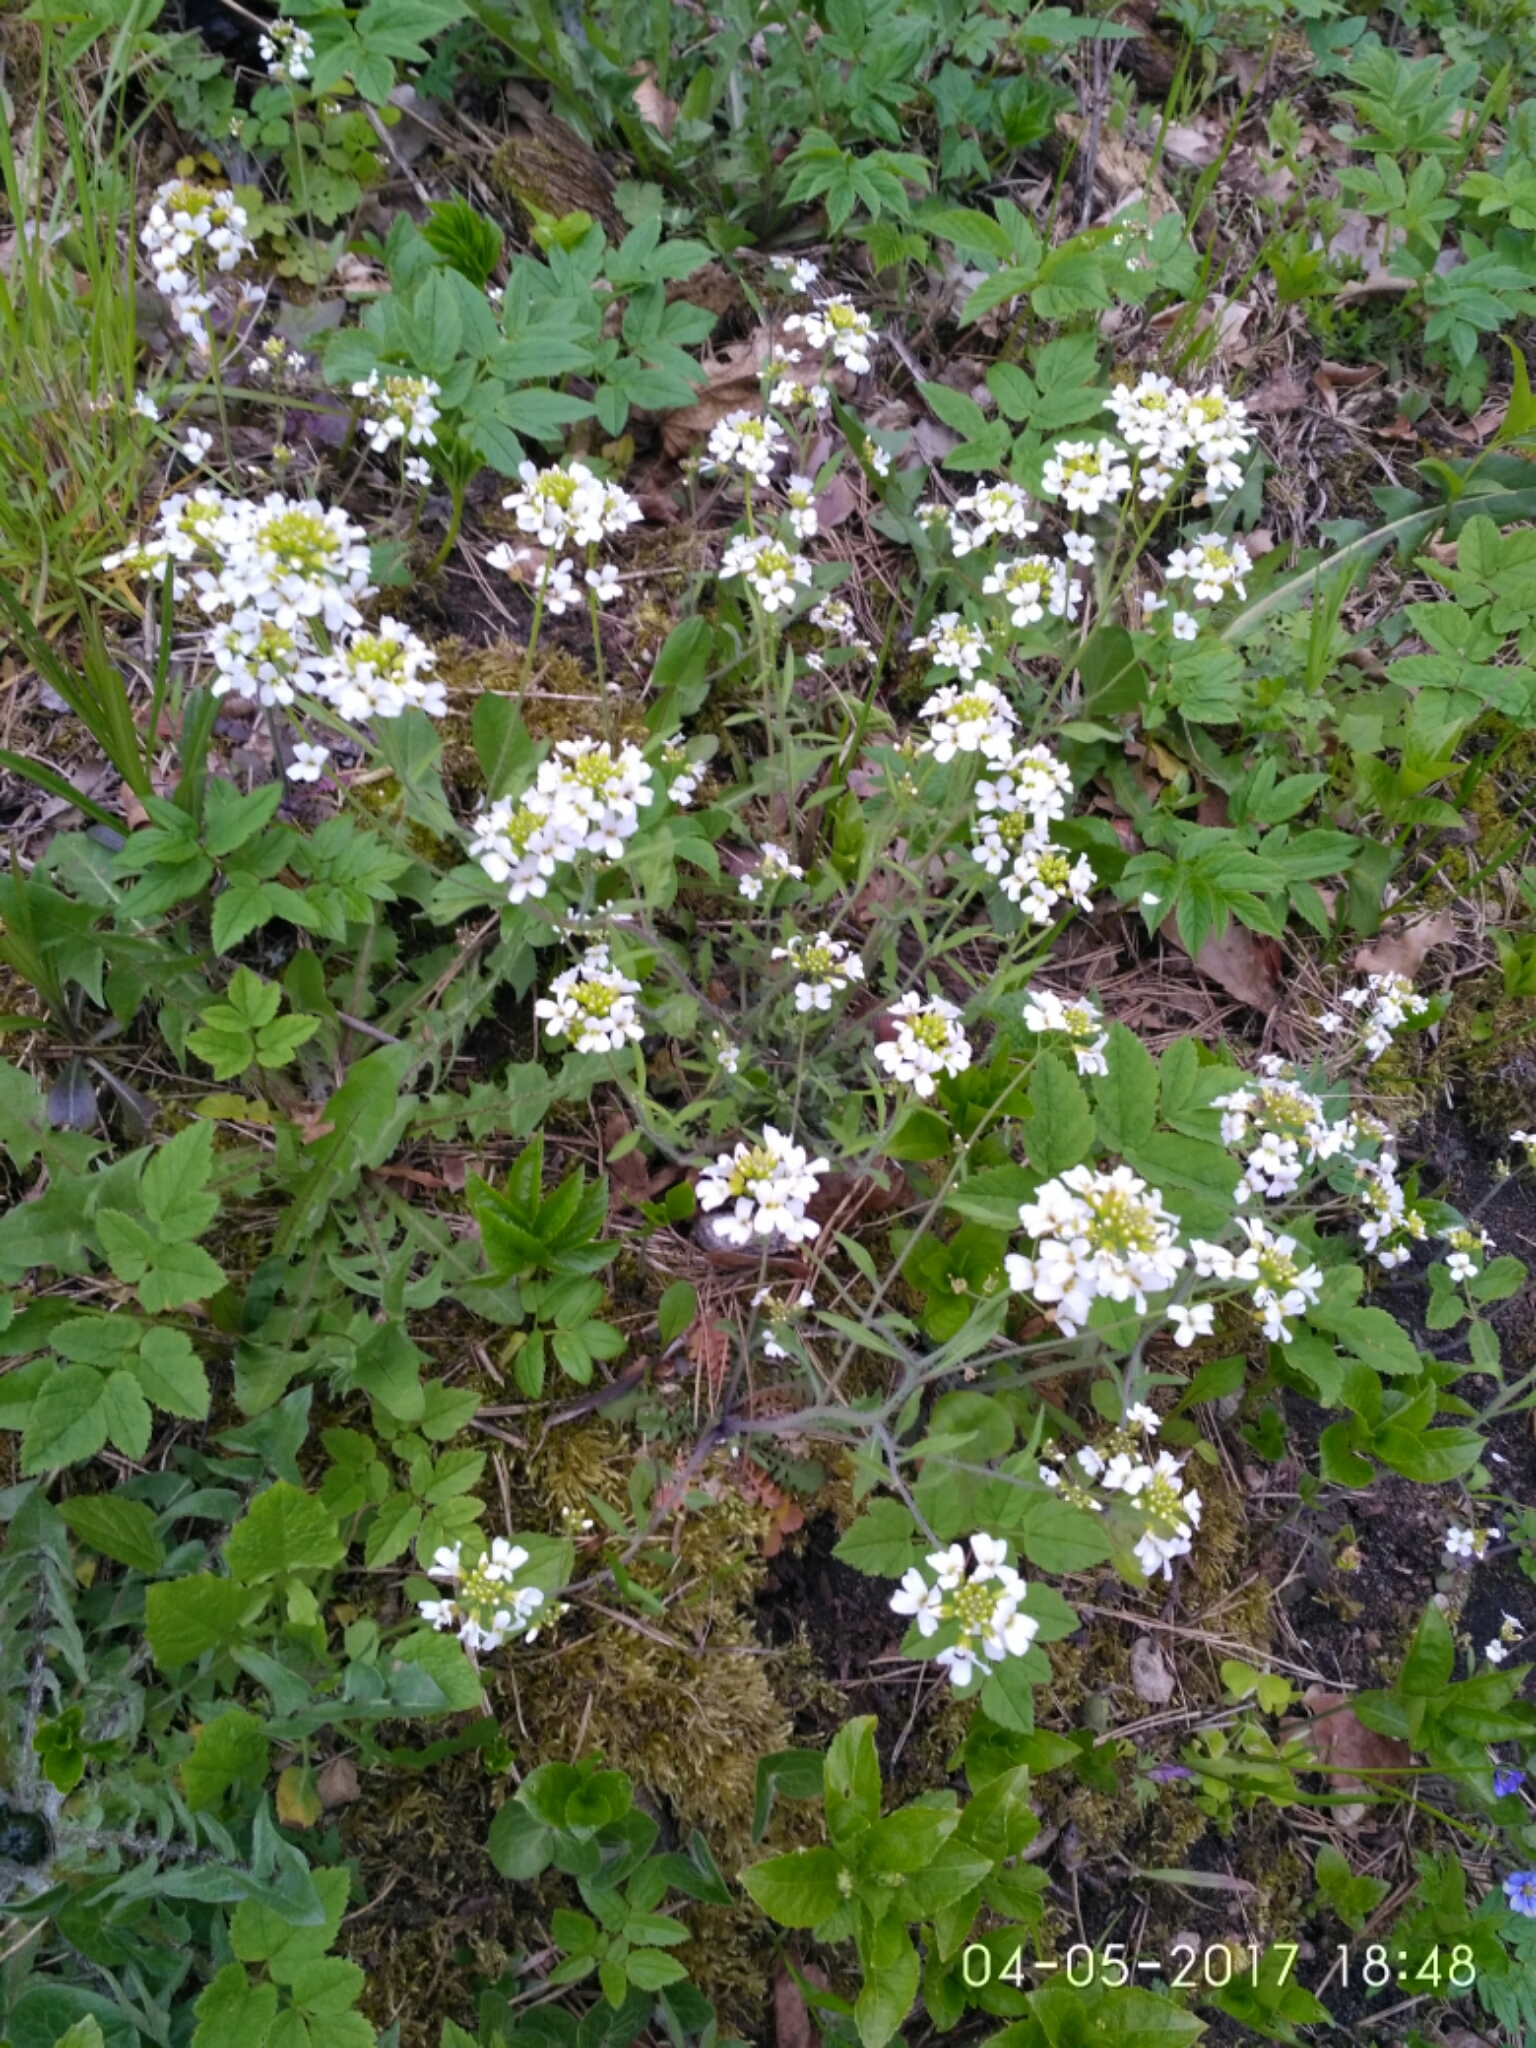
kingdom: Plantae
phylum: Tracheophyta
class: Magnoliopsida
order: Brassicales
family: Brassicaceae
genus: Arabidopsis
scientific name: Arabidopsis arenosa
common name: Sand rock-cress
